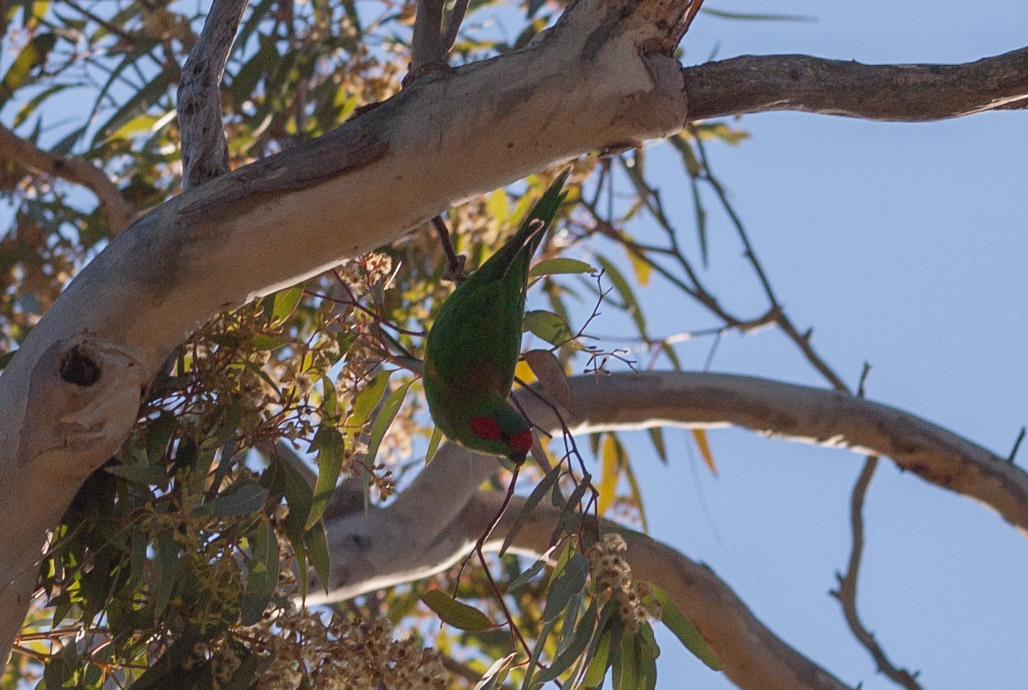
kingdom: Animalia
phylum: Chordata
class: Aves
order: Psittaciformes
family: Psittacidae
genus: Glossopsitta
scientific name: Glossopsitta concinna
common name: Musk lorikeet
